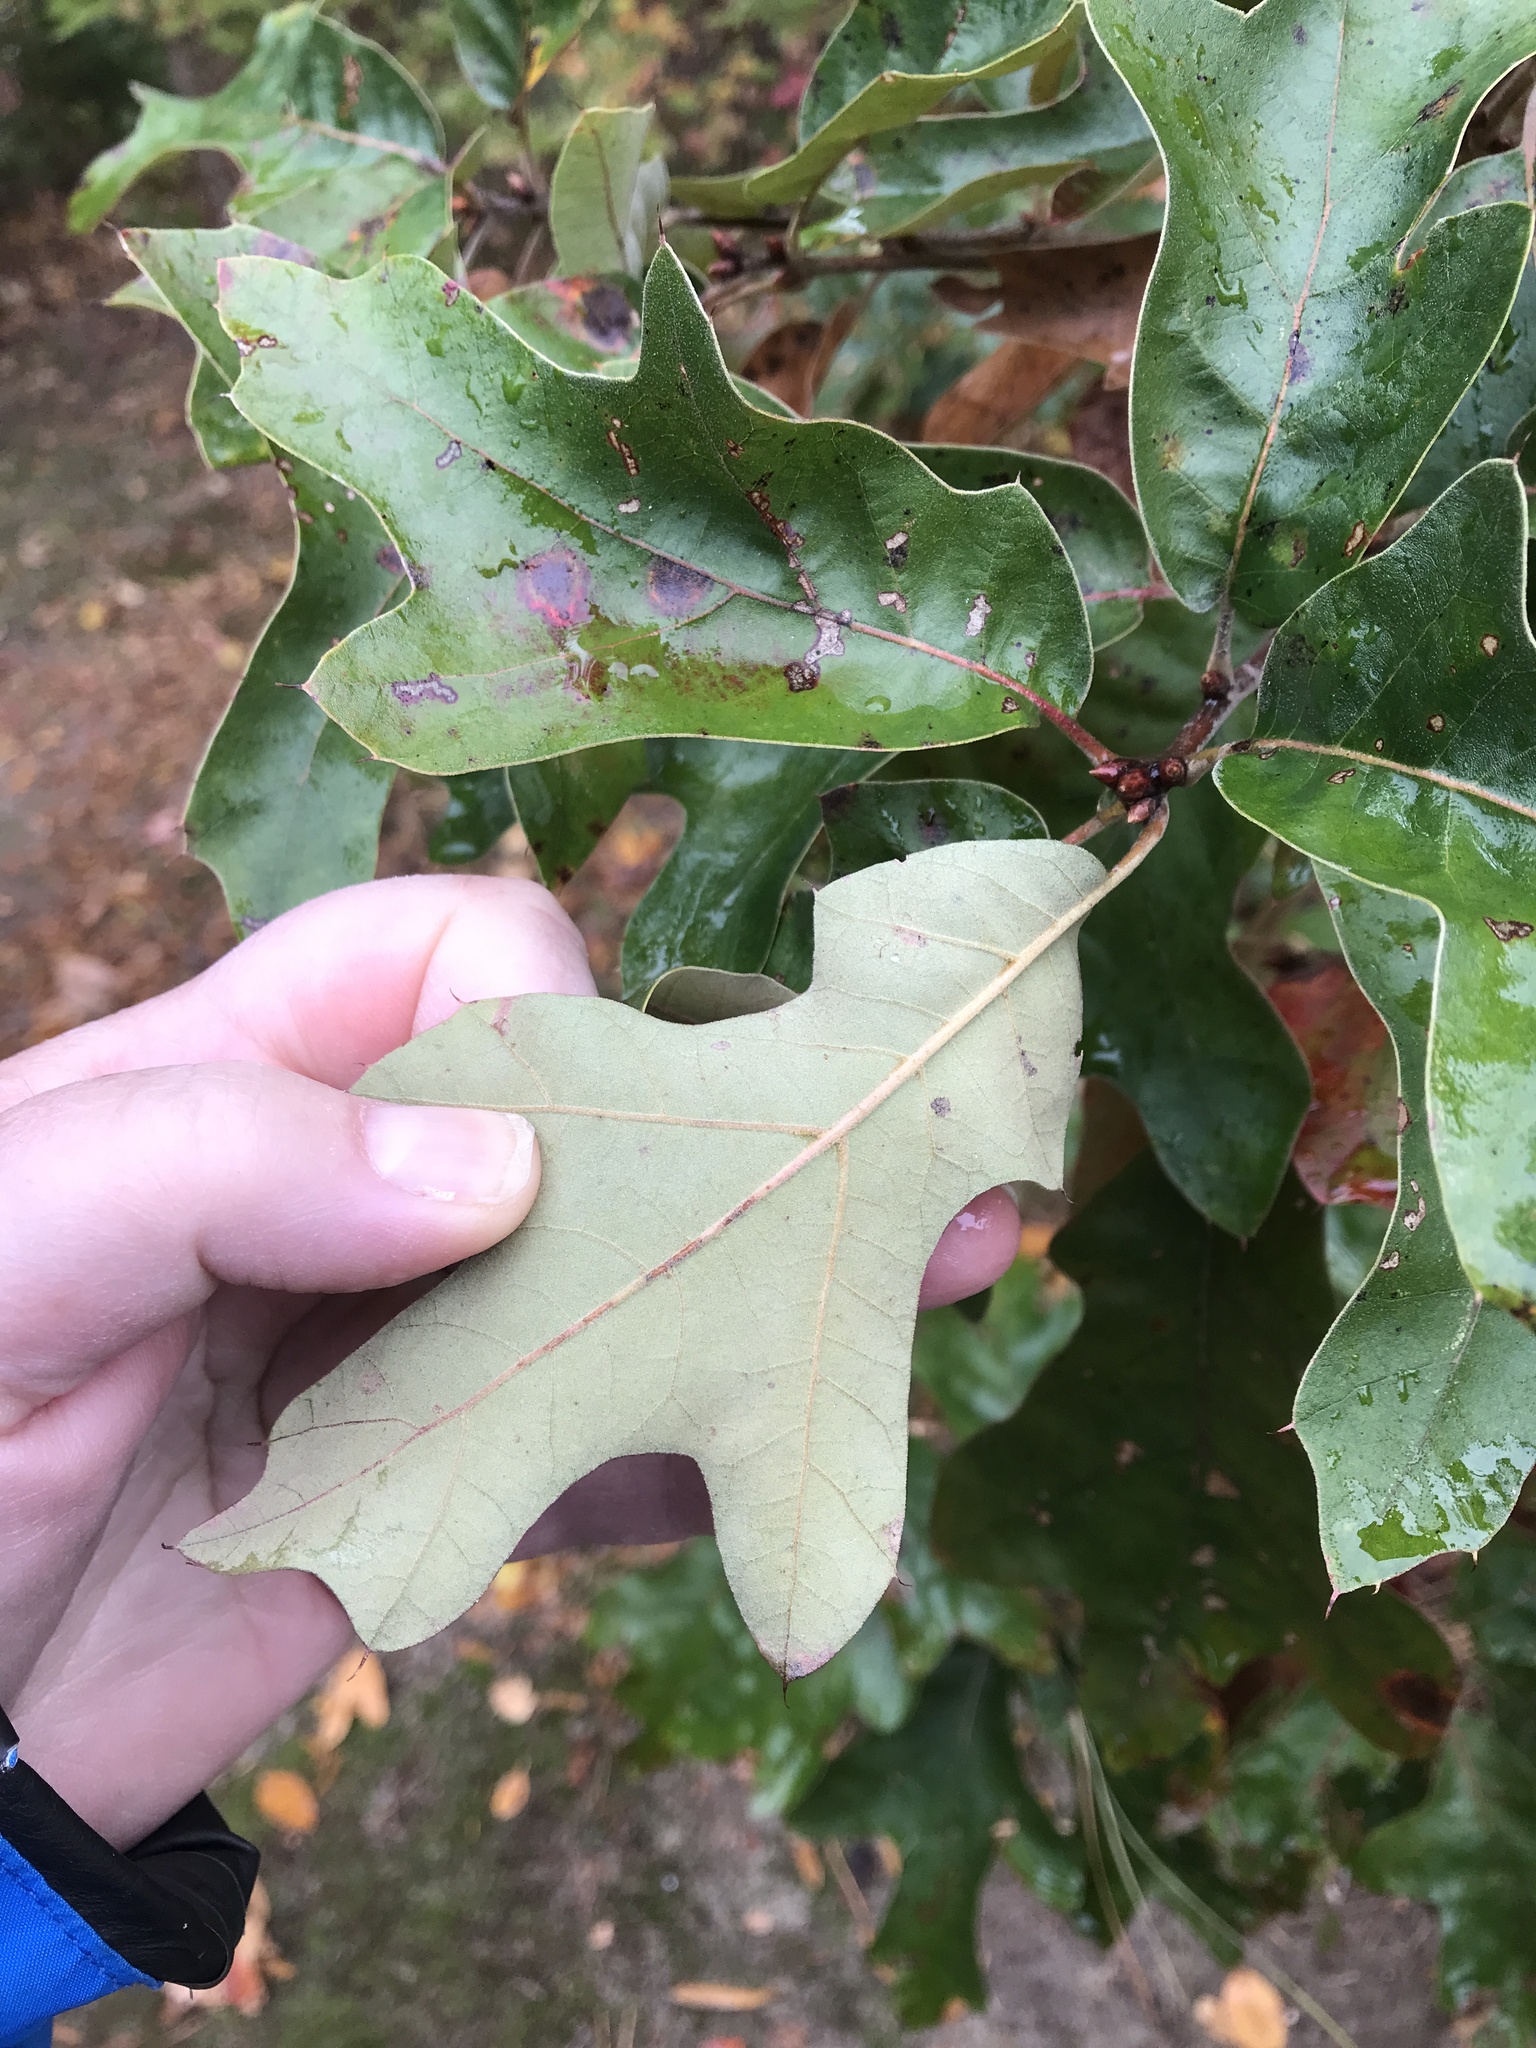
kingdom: Plantae
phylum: Tracheophyta
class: Magnoliopsida
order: Fagales
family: Fagaceae
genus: Quercus
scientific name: Quercus falcata
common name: Southern red oak
